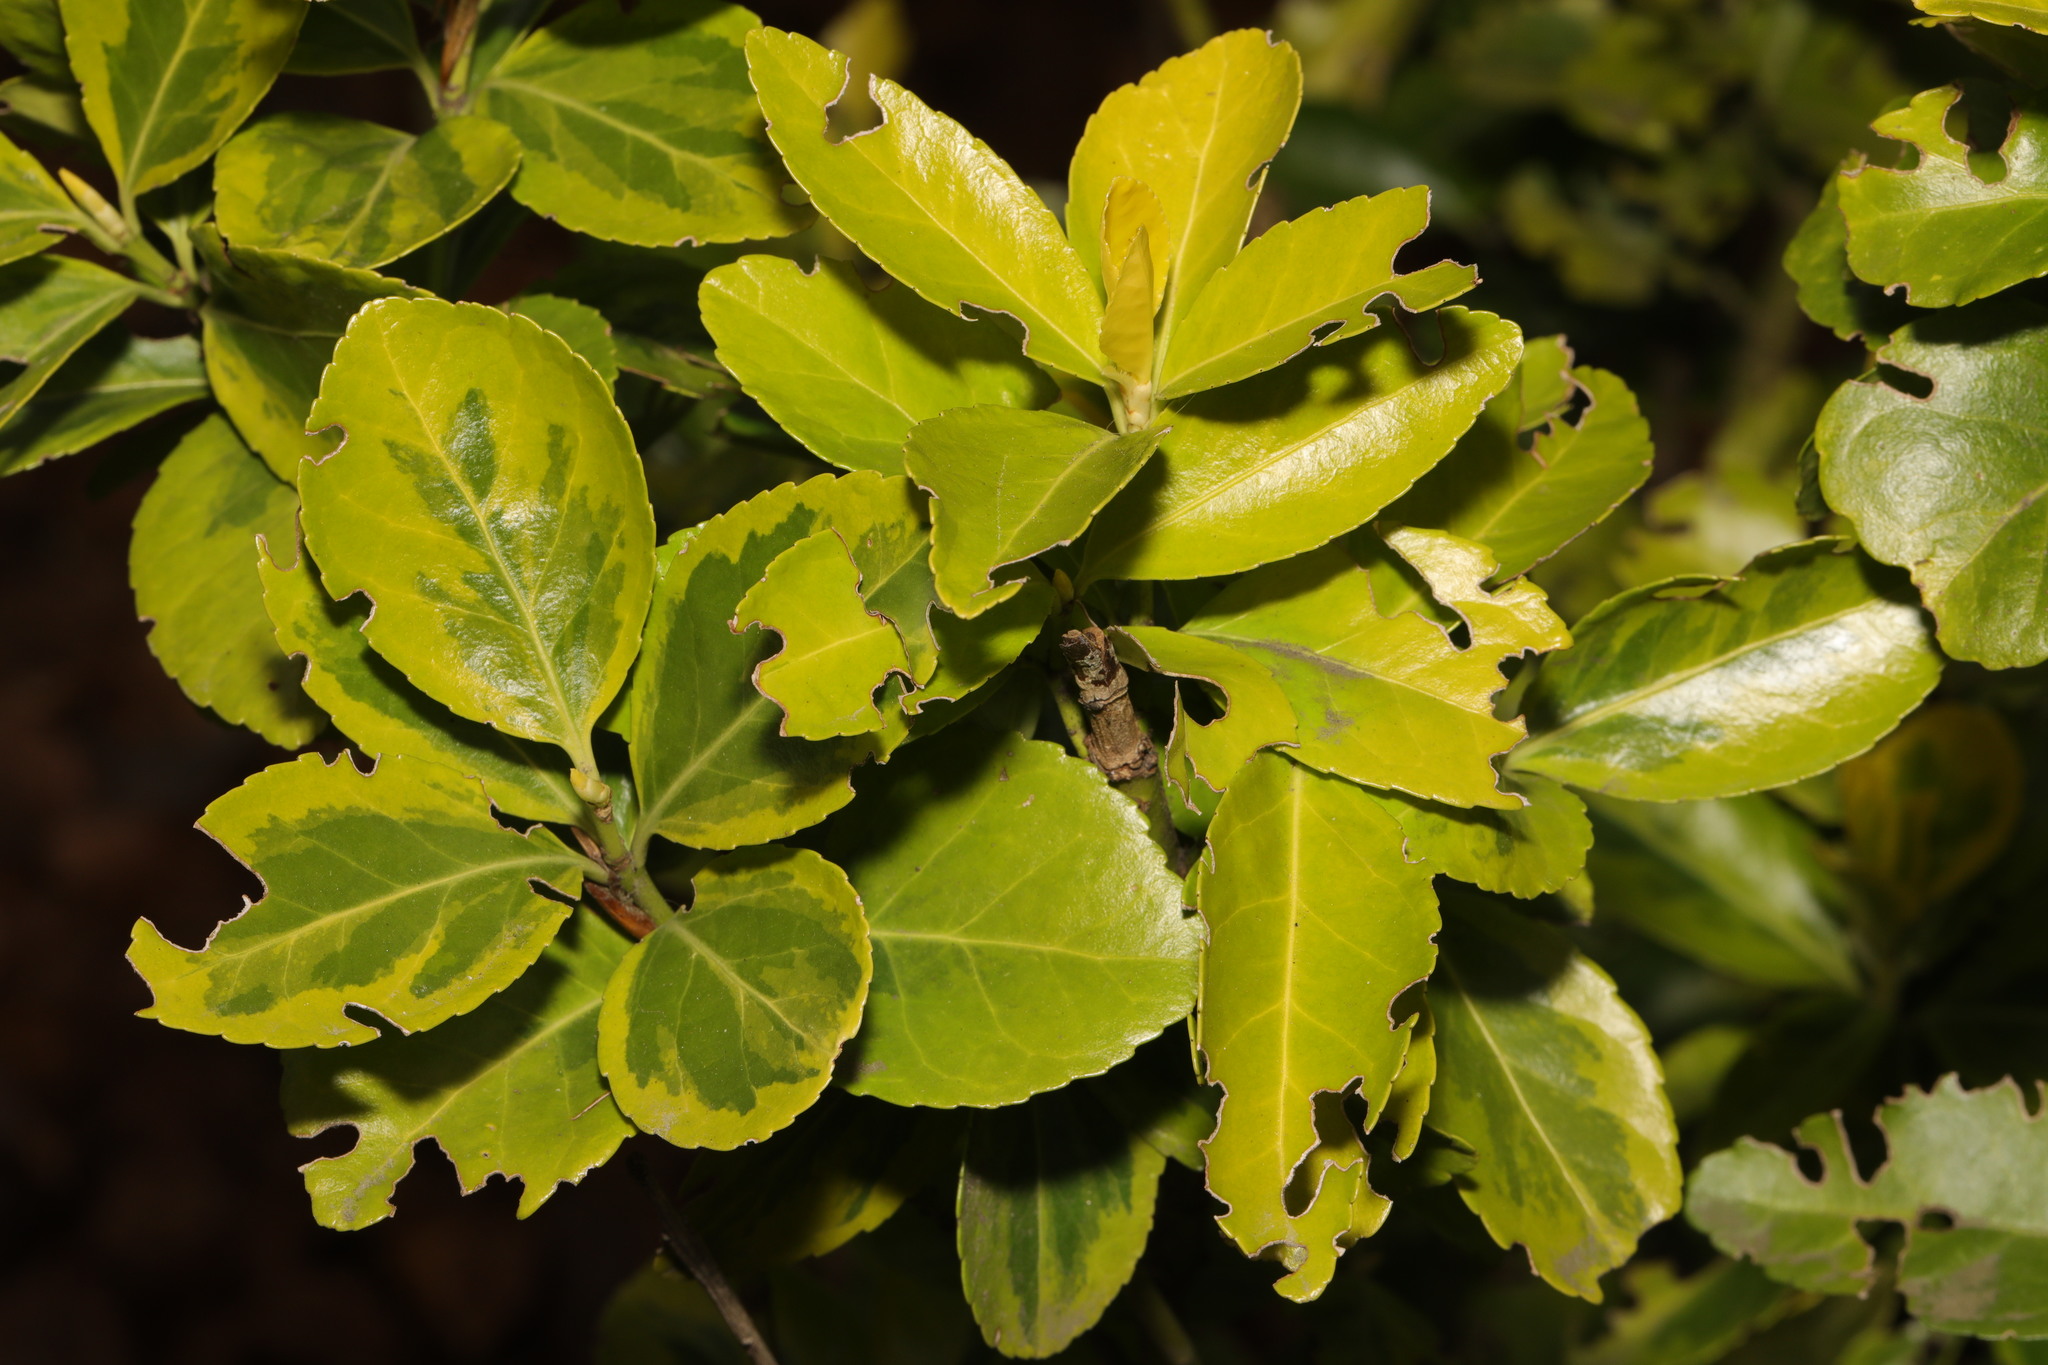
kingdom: Plantae
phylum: Tracheophyta
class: Magnoliopsida
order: Celastrales
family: Celastraceae
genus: Euonymus
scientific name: Euonymus japonicus
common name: Japanese spindletree
